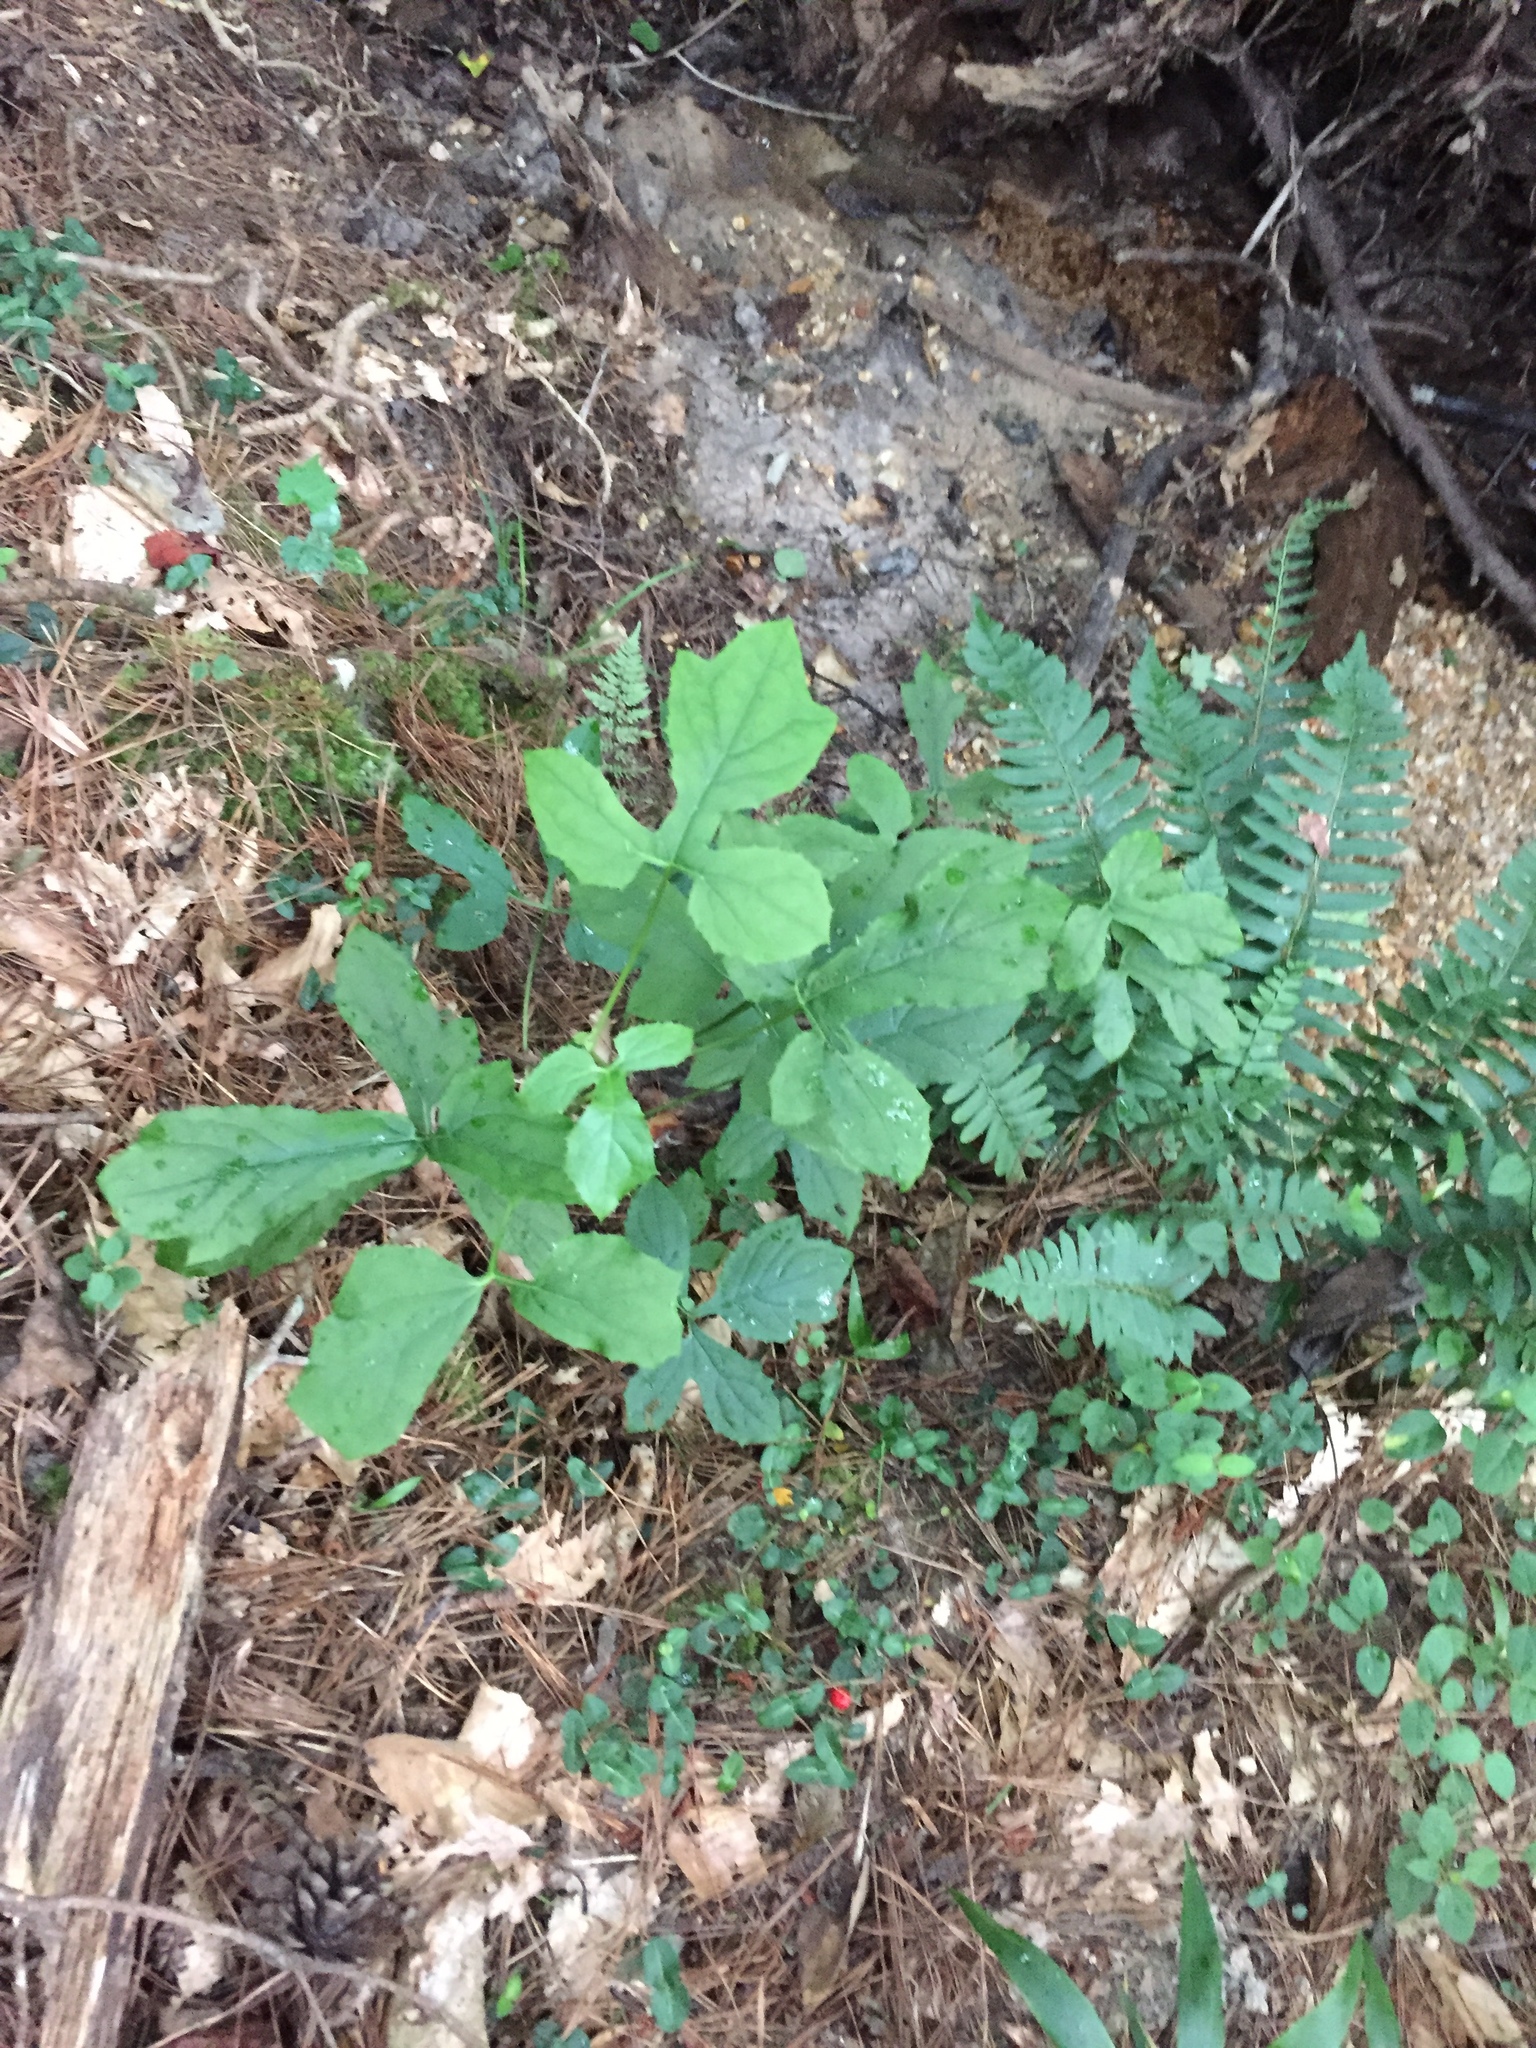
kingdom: Plantae
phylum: Tracheophyta
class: Magnoliopsida
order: Asterales
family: Asteraceae
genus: Nabalus
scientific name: Nabalus altissima
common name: Tall rattlesnakeroot
